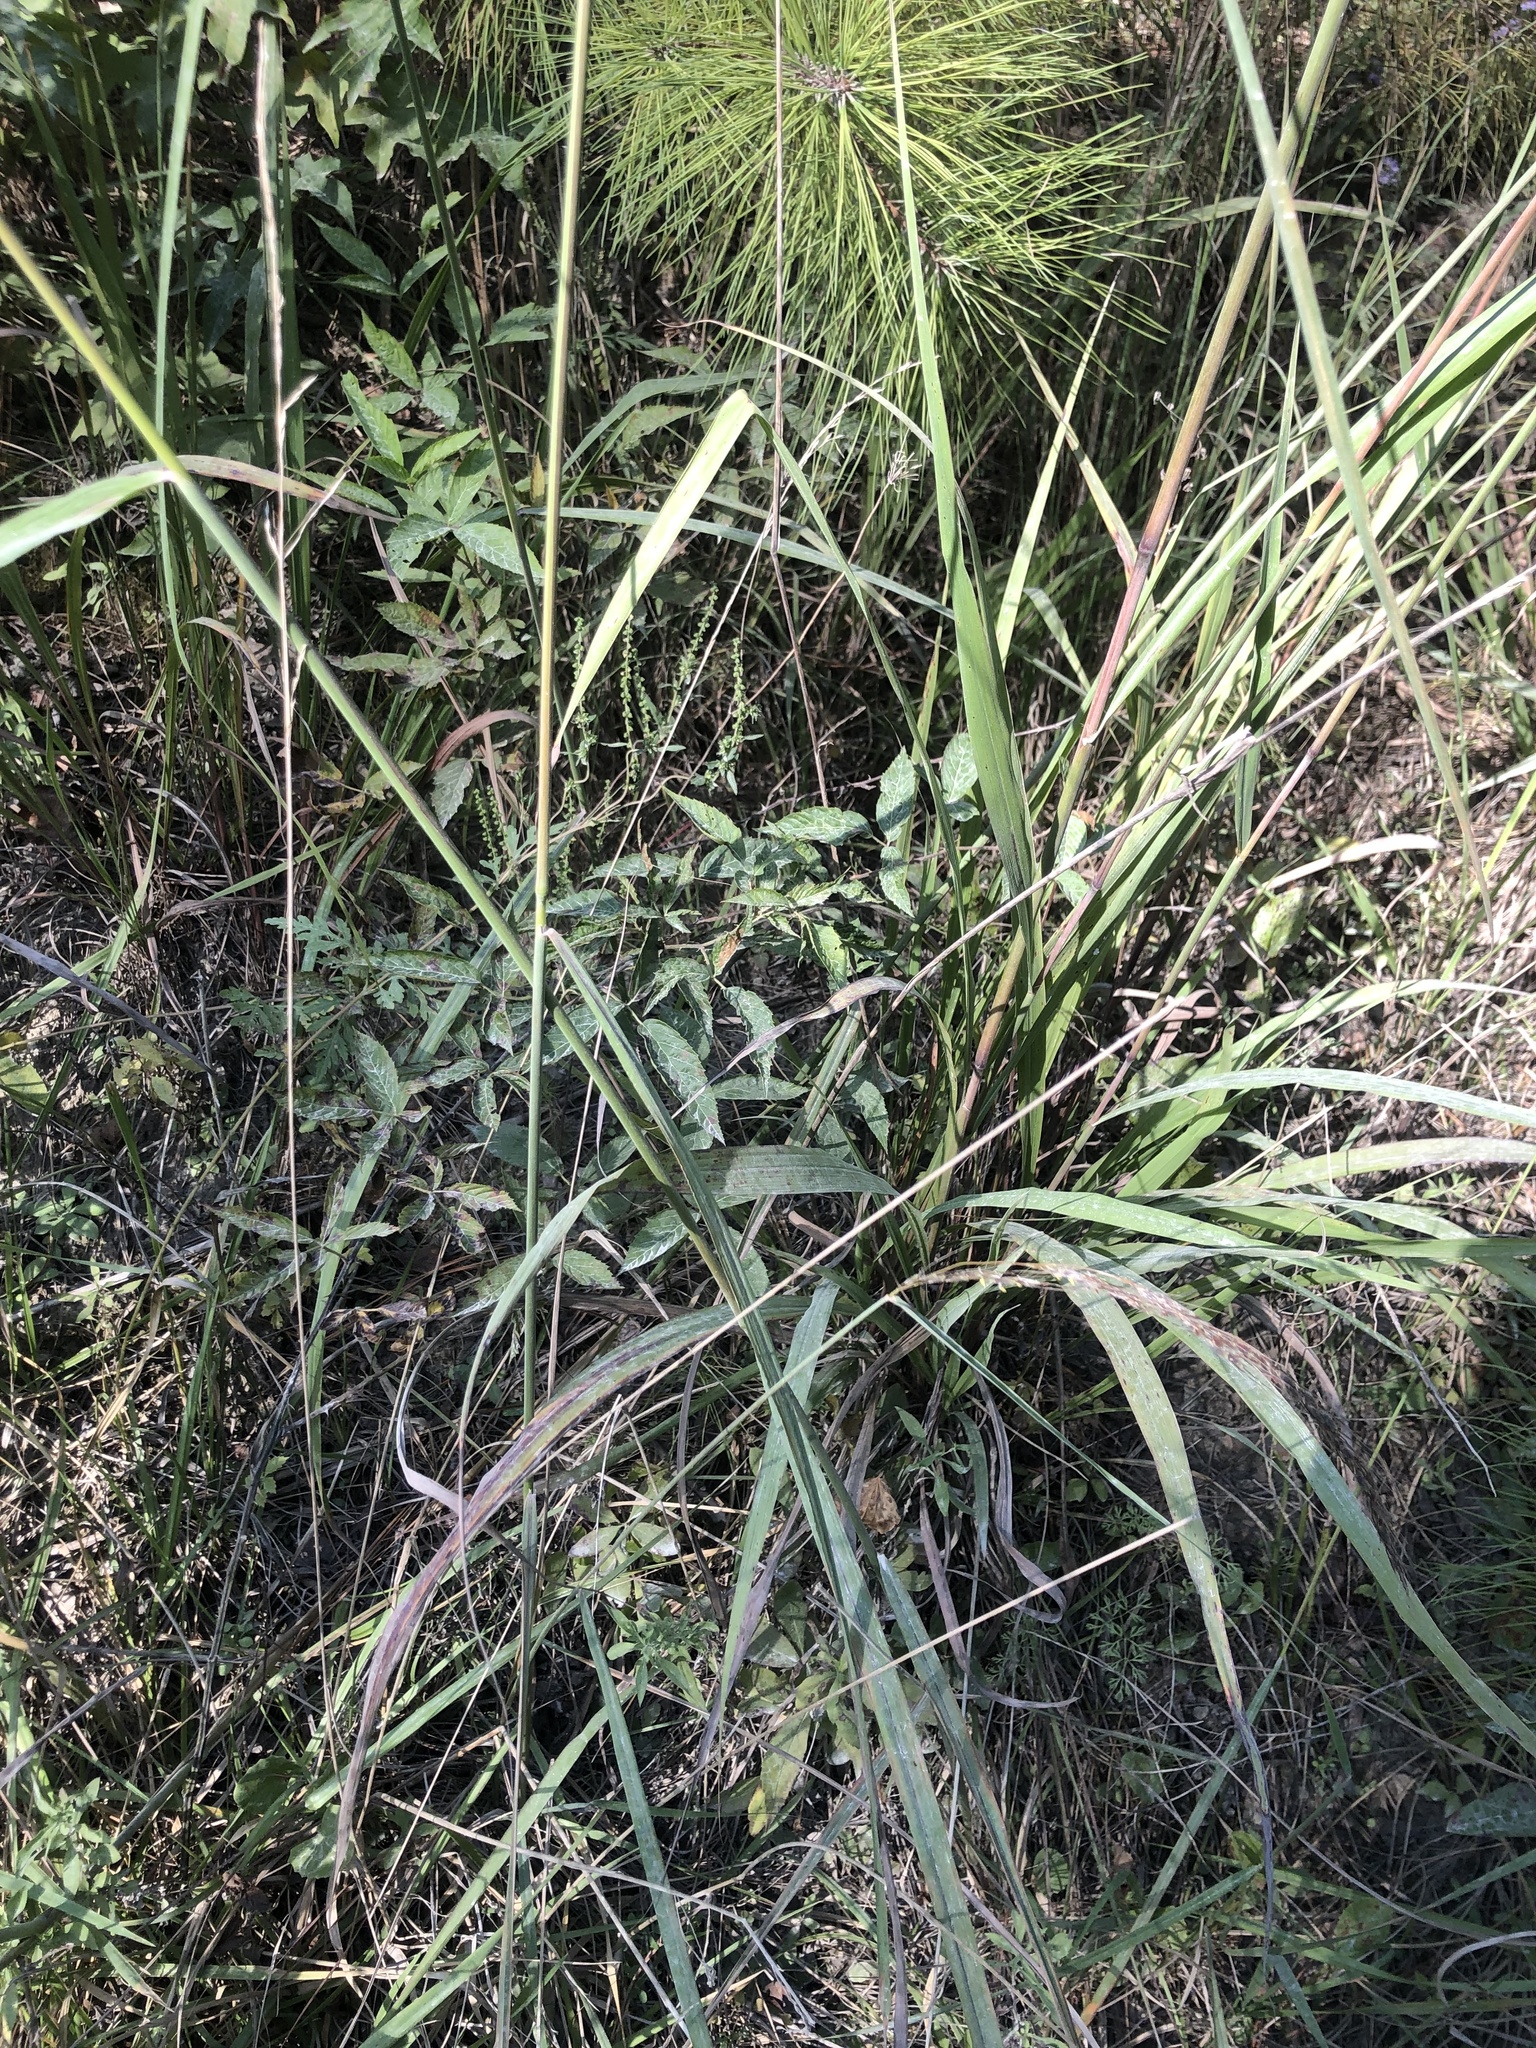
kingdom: Plantae
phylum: Tracheophyta
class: Liliopsida
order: Poales
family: Poaceae
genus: Sorghastrum
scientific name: Sorghastrum elliottii
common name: Slender indian grass
